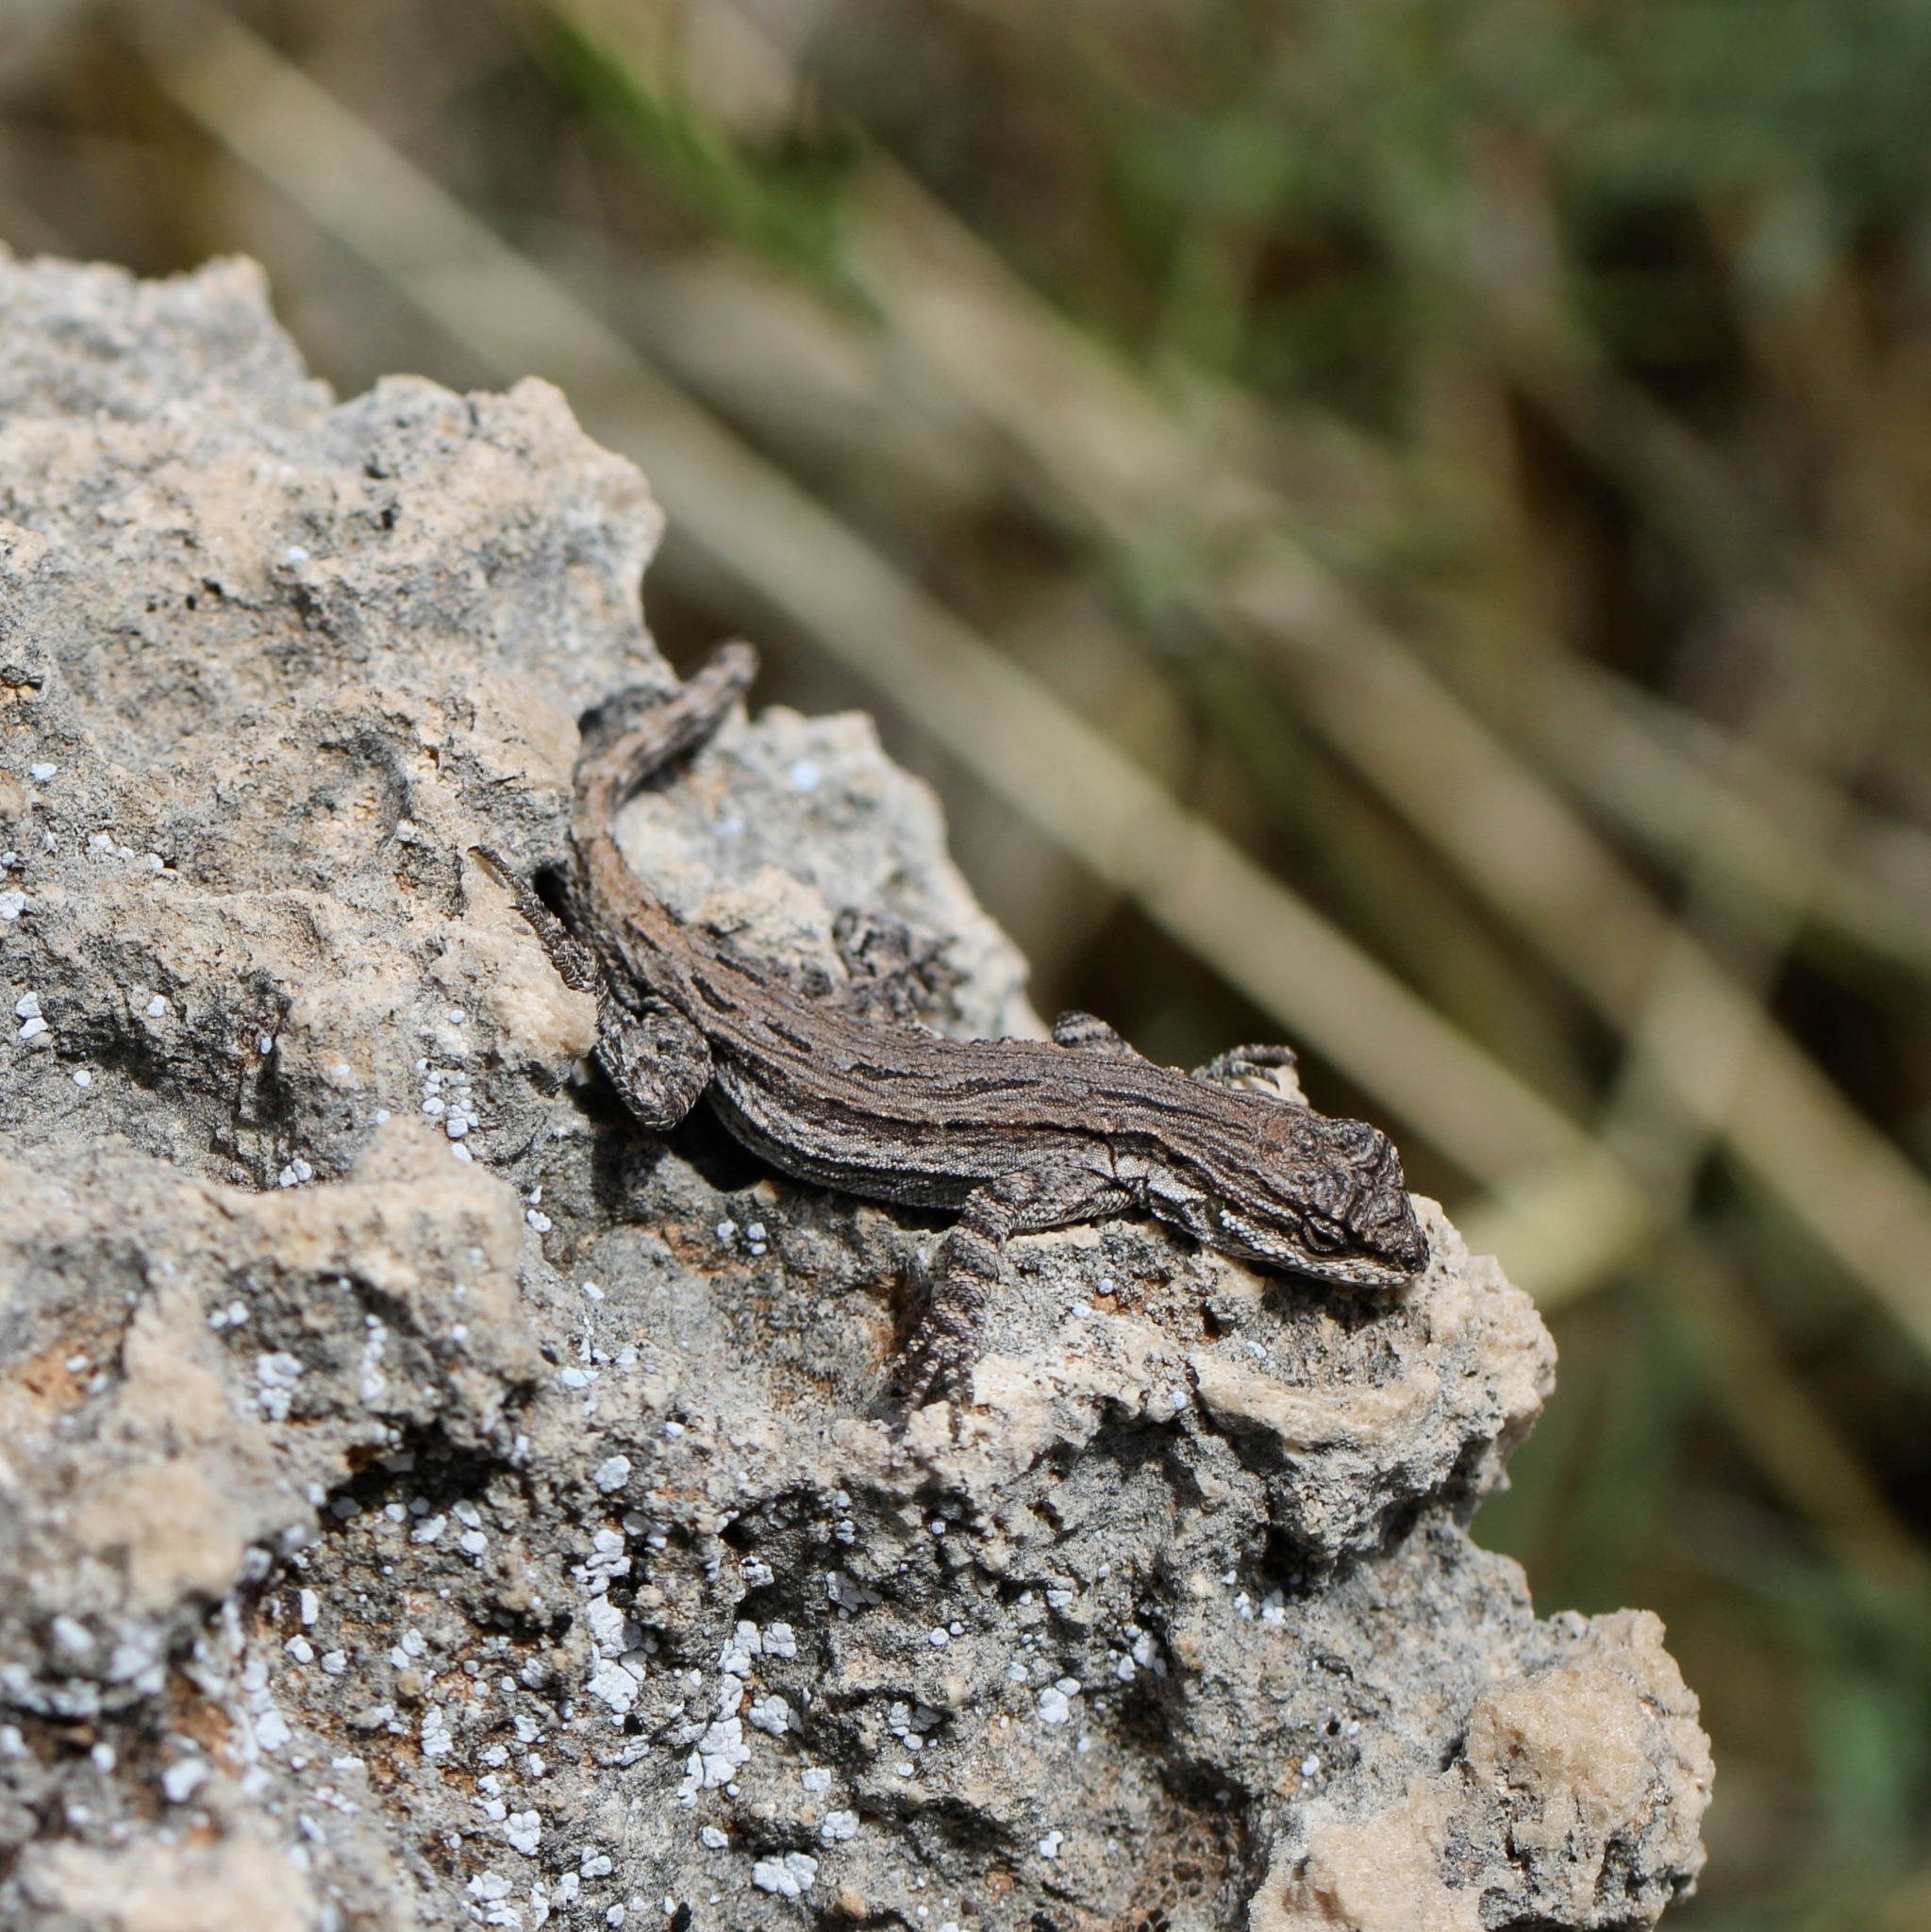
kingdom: Animalia
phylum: Chordata
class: Squamata
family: Phrynosomatidae
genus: Urosaurus
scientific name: Urosaurus ornatus
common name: Ornate tree lizard
